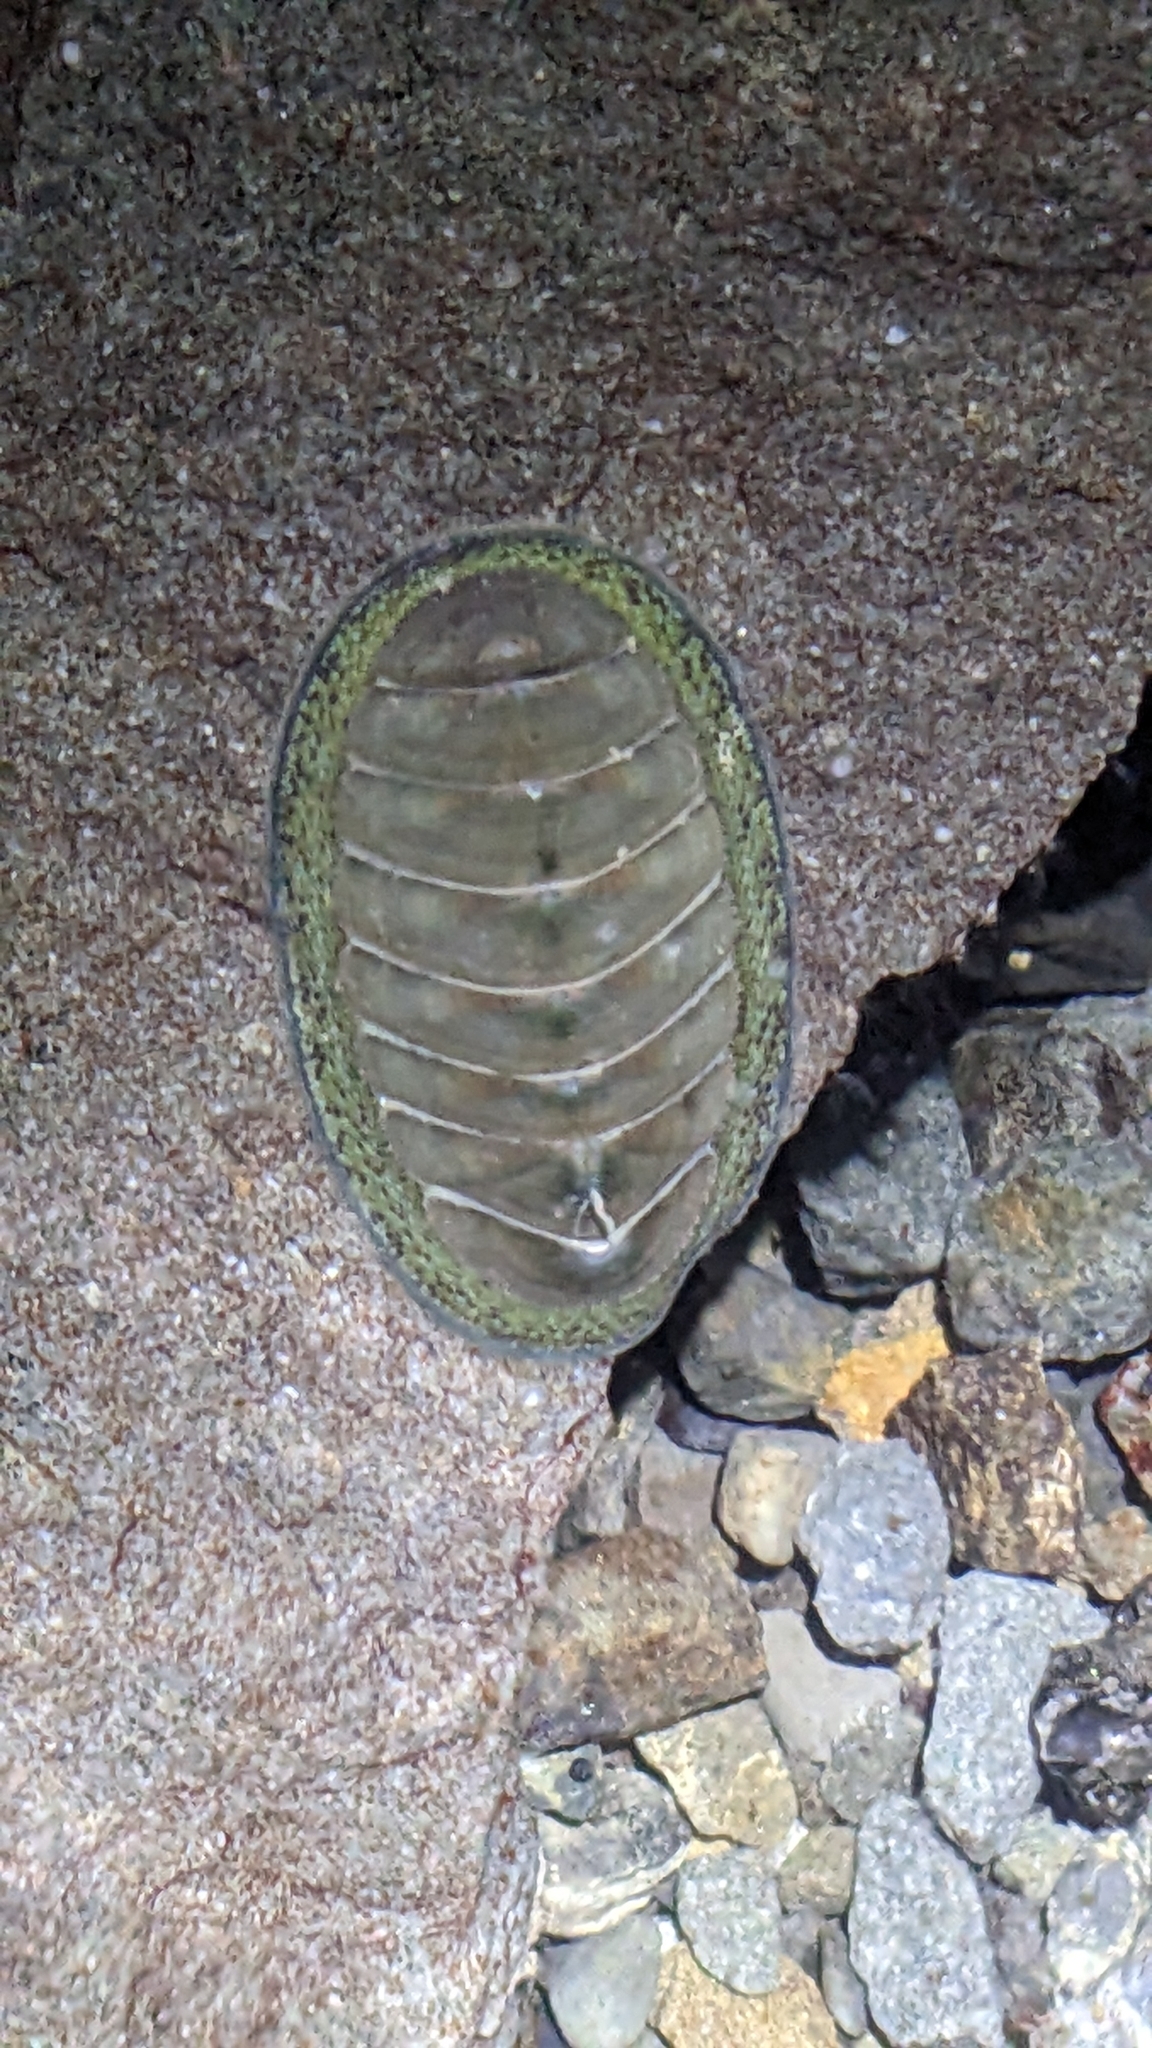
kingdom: Animalia
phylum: Mollusca
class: Polyplacophora
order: Chitonida
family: Chitonidae
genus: Chiton
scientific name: Chiton glaucus
